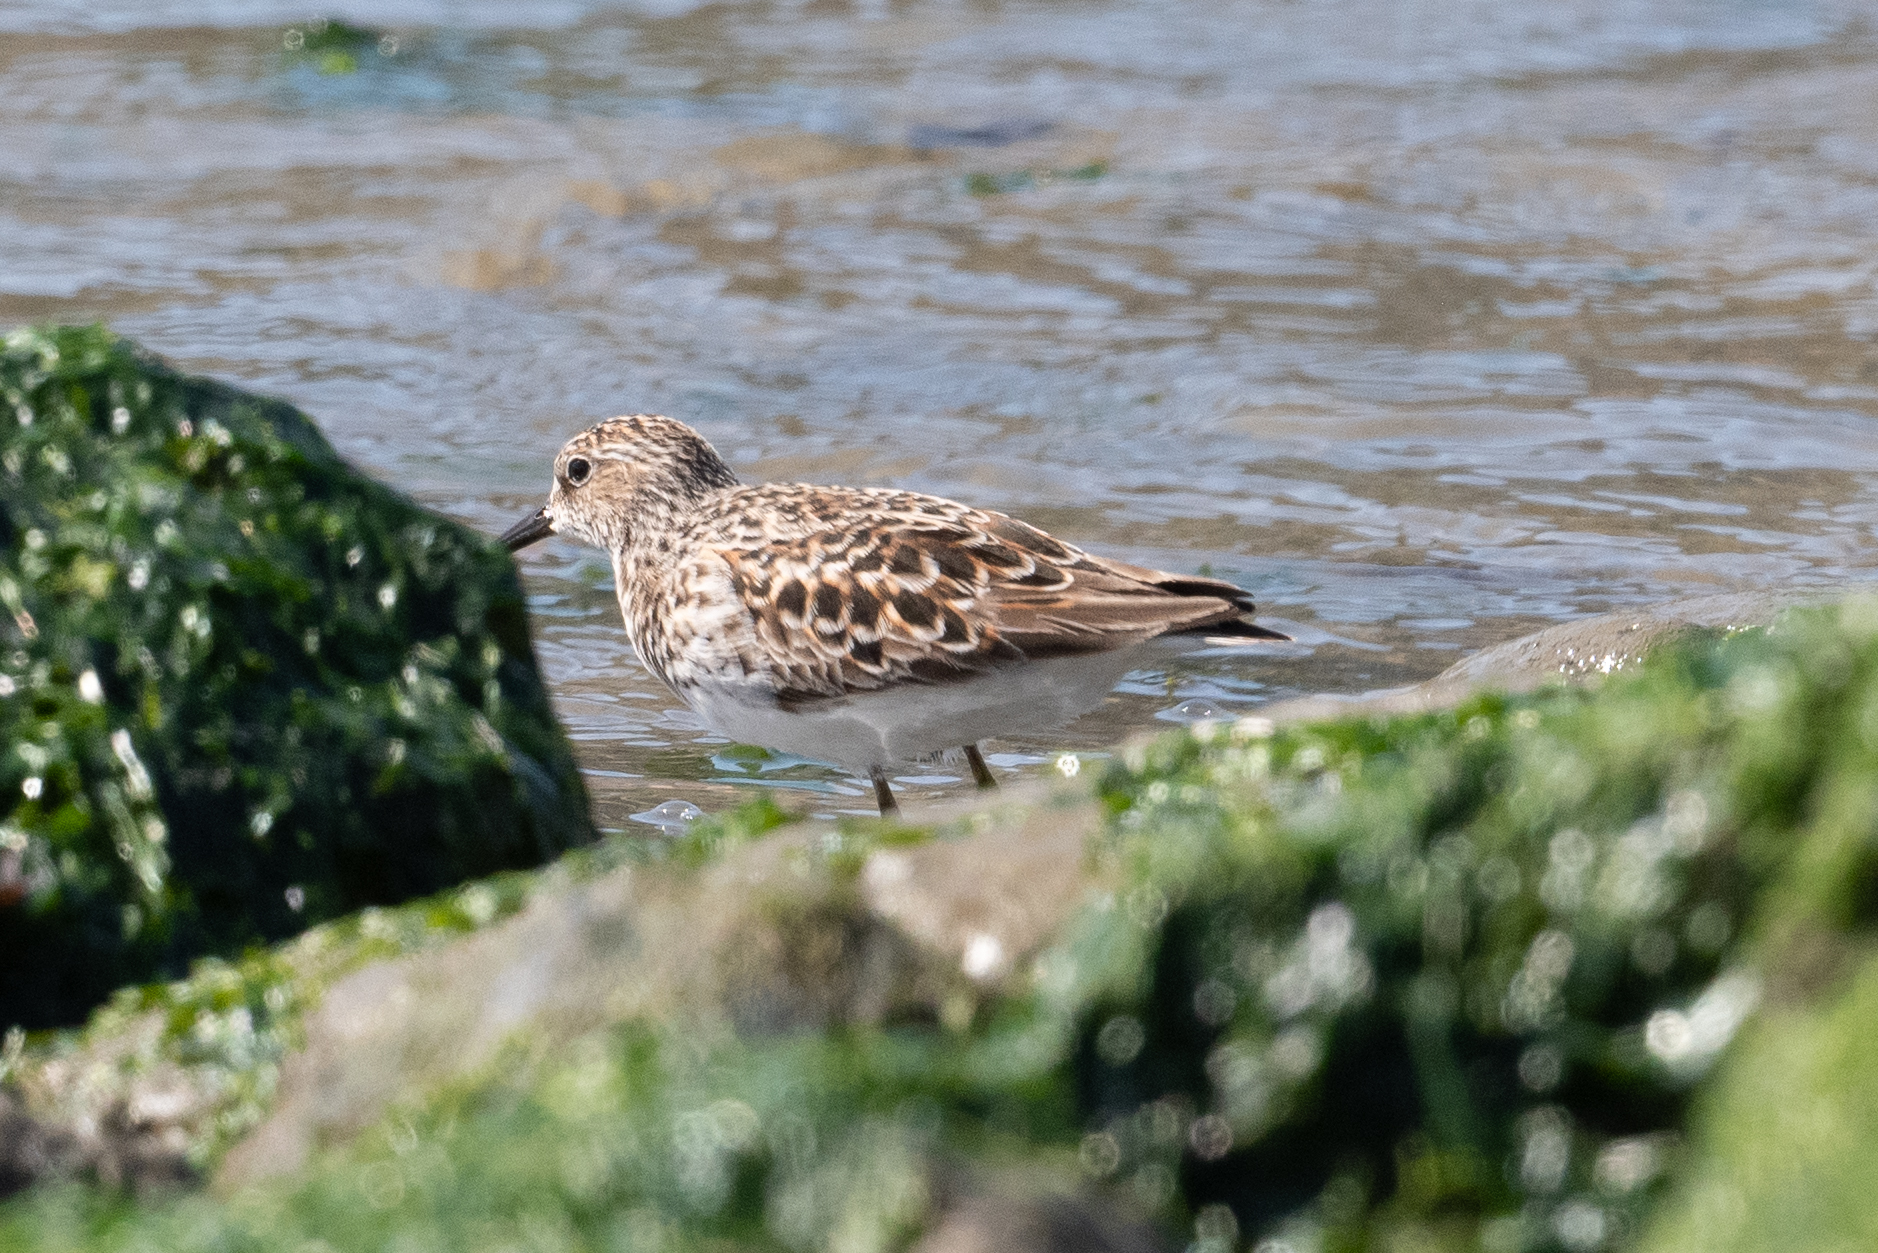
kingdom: Animalia
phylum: Chordata
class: Aves
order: Charadriiformes
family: Scolopacidae
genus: Calidris
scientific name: Calidris minutilla
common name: Least sandpiper
